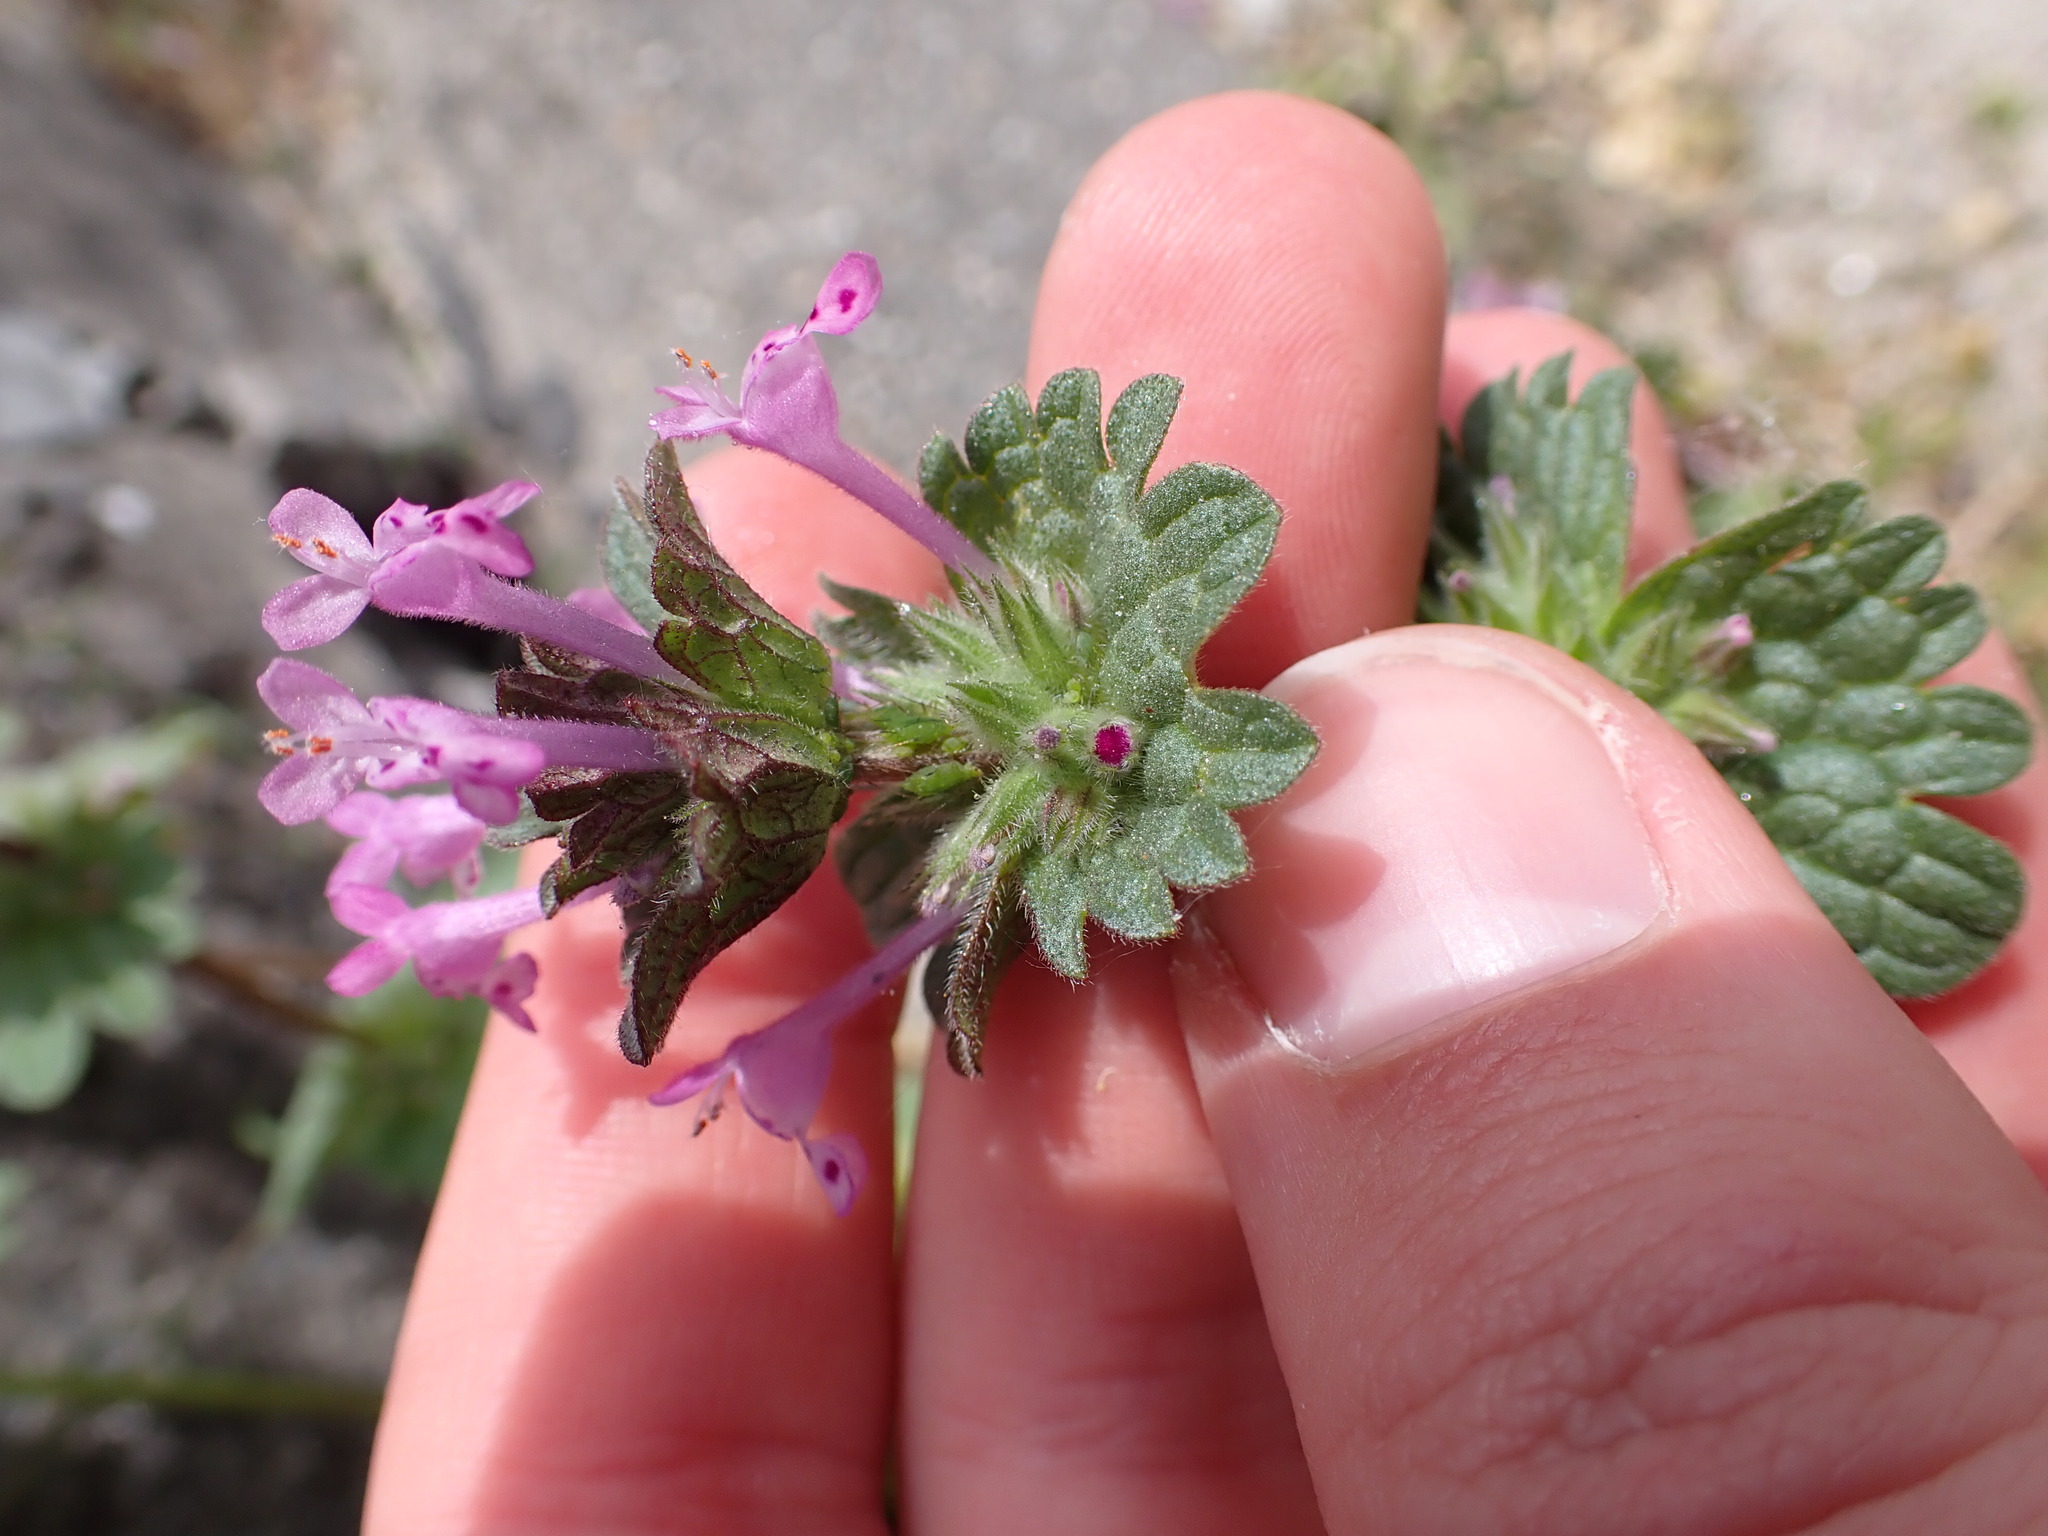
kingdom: Plantae
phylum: Tracheophyta
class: Magnoliopsida
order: Lamiales
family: Lamiaceae
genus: Lamium
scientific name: Lamium amplexicaule
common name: Henbit dead-nettle
